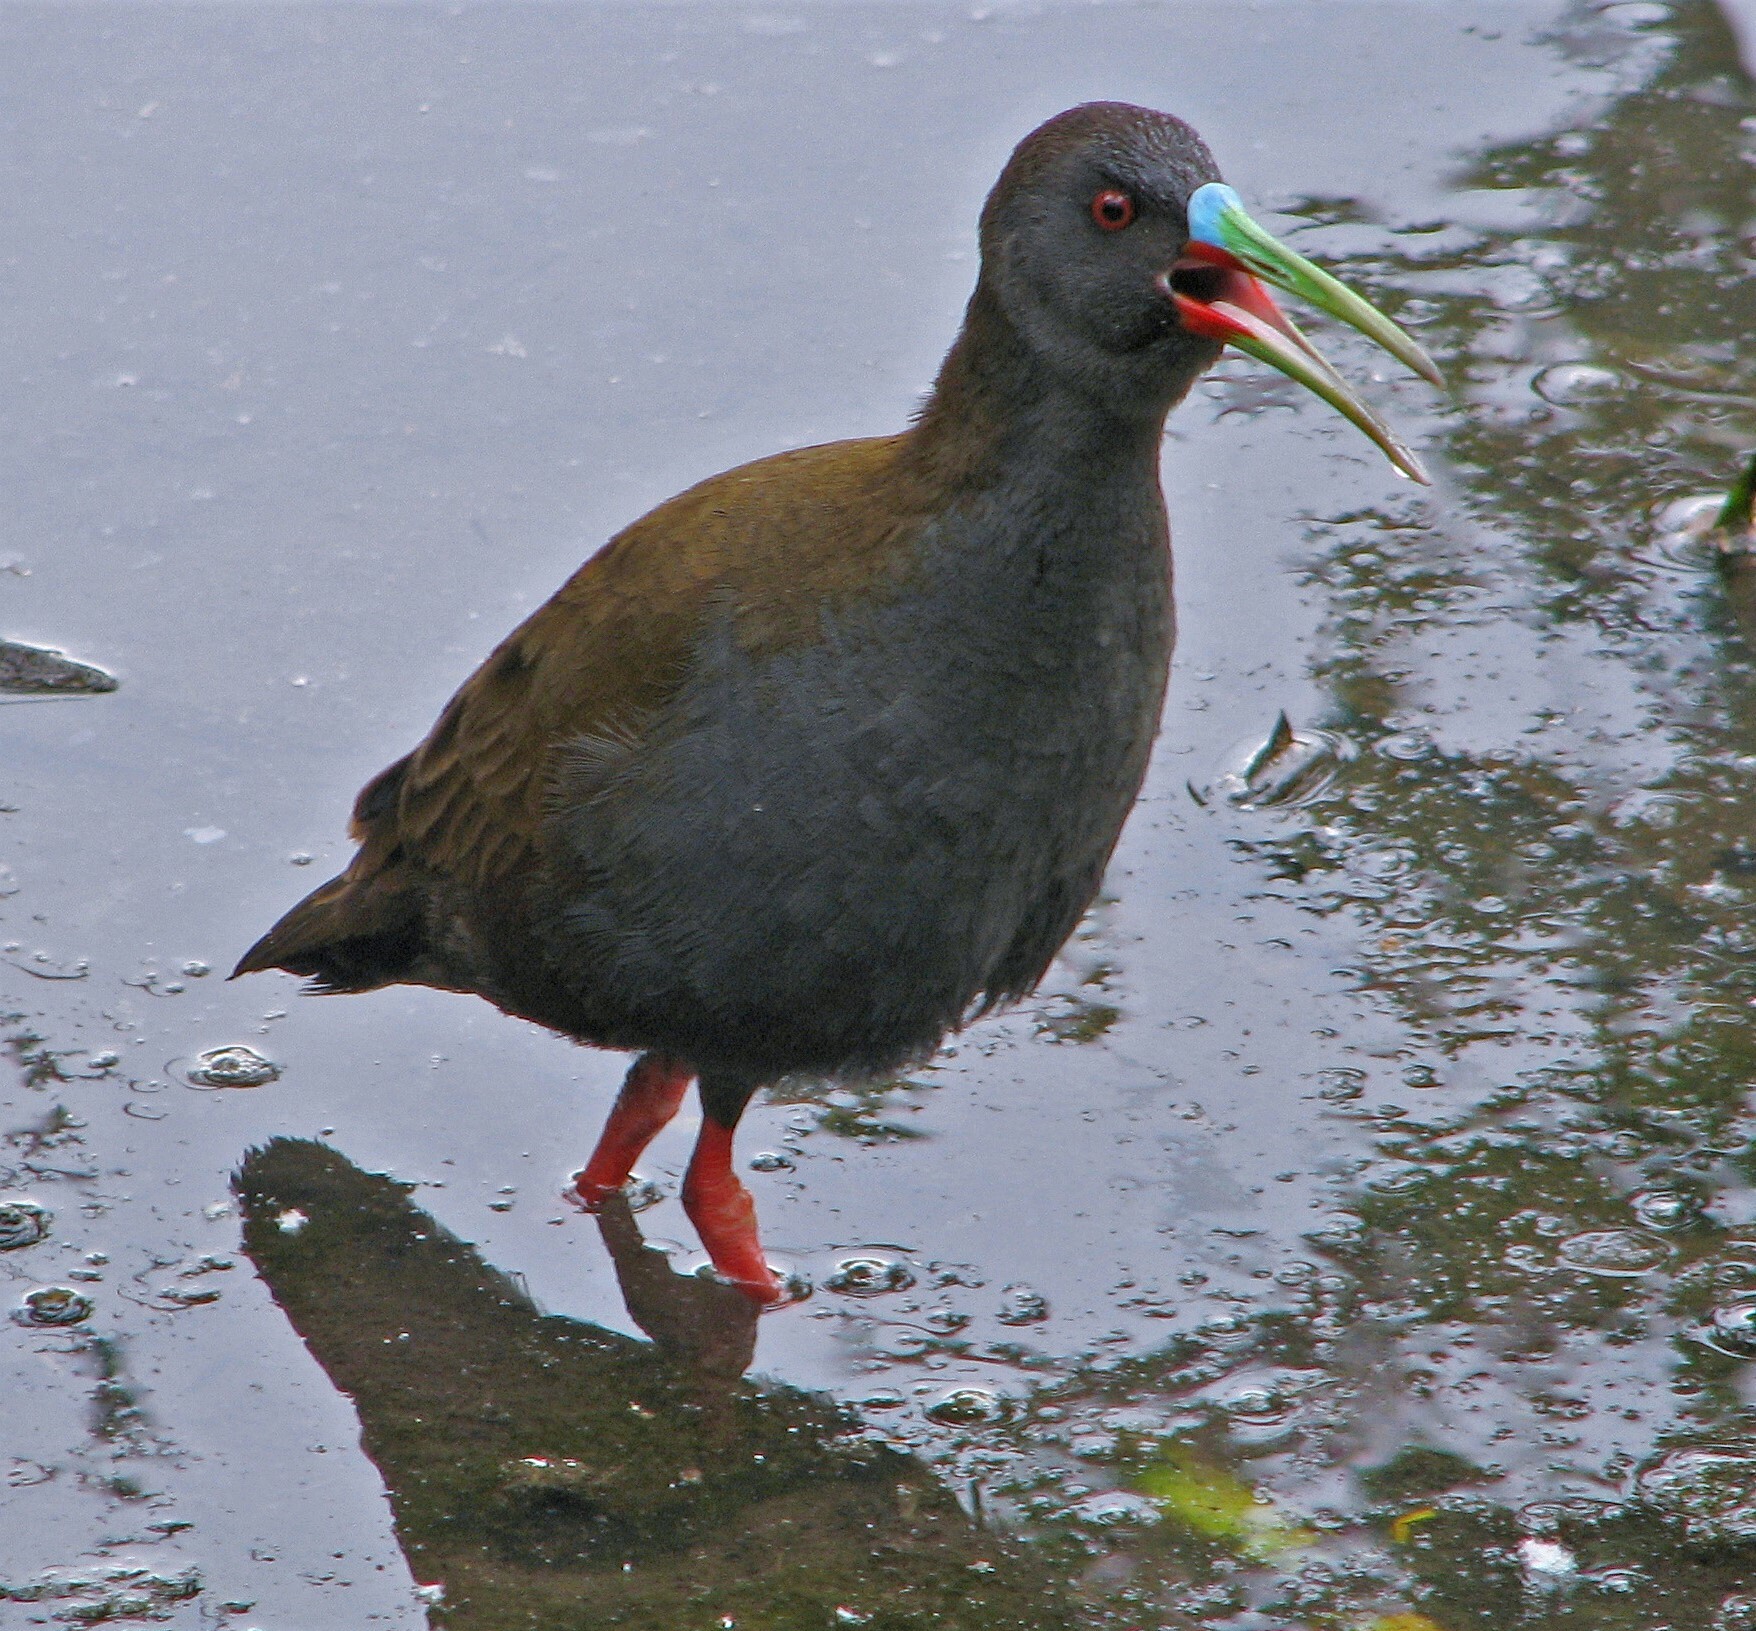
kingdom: Animalia
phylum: Chordata
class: Aves
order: Gruiformes
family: Rallidae
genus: Pardirallus
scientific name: Pardirallus sanguinolentus
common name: Plumbeous rail
